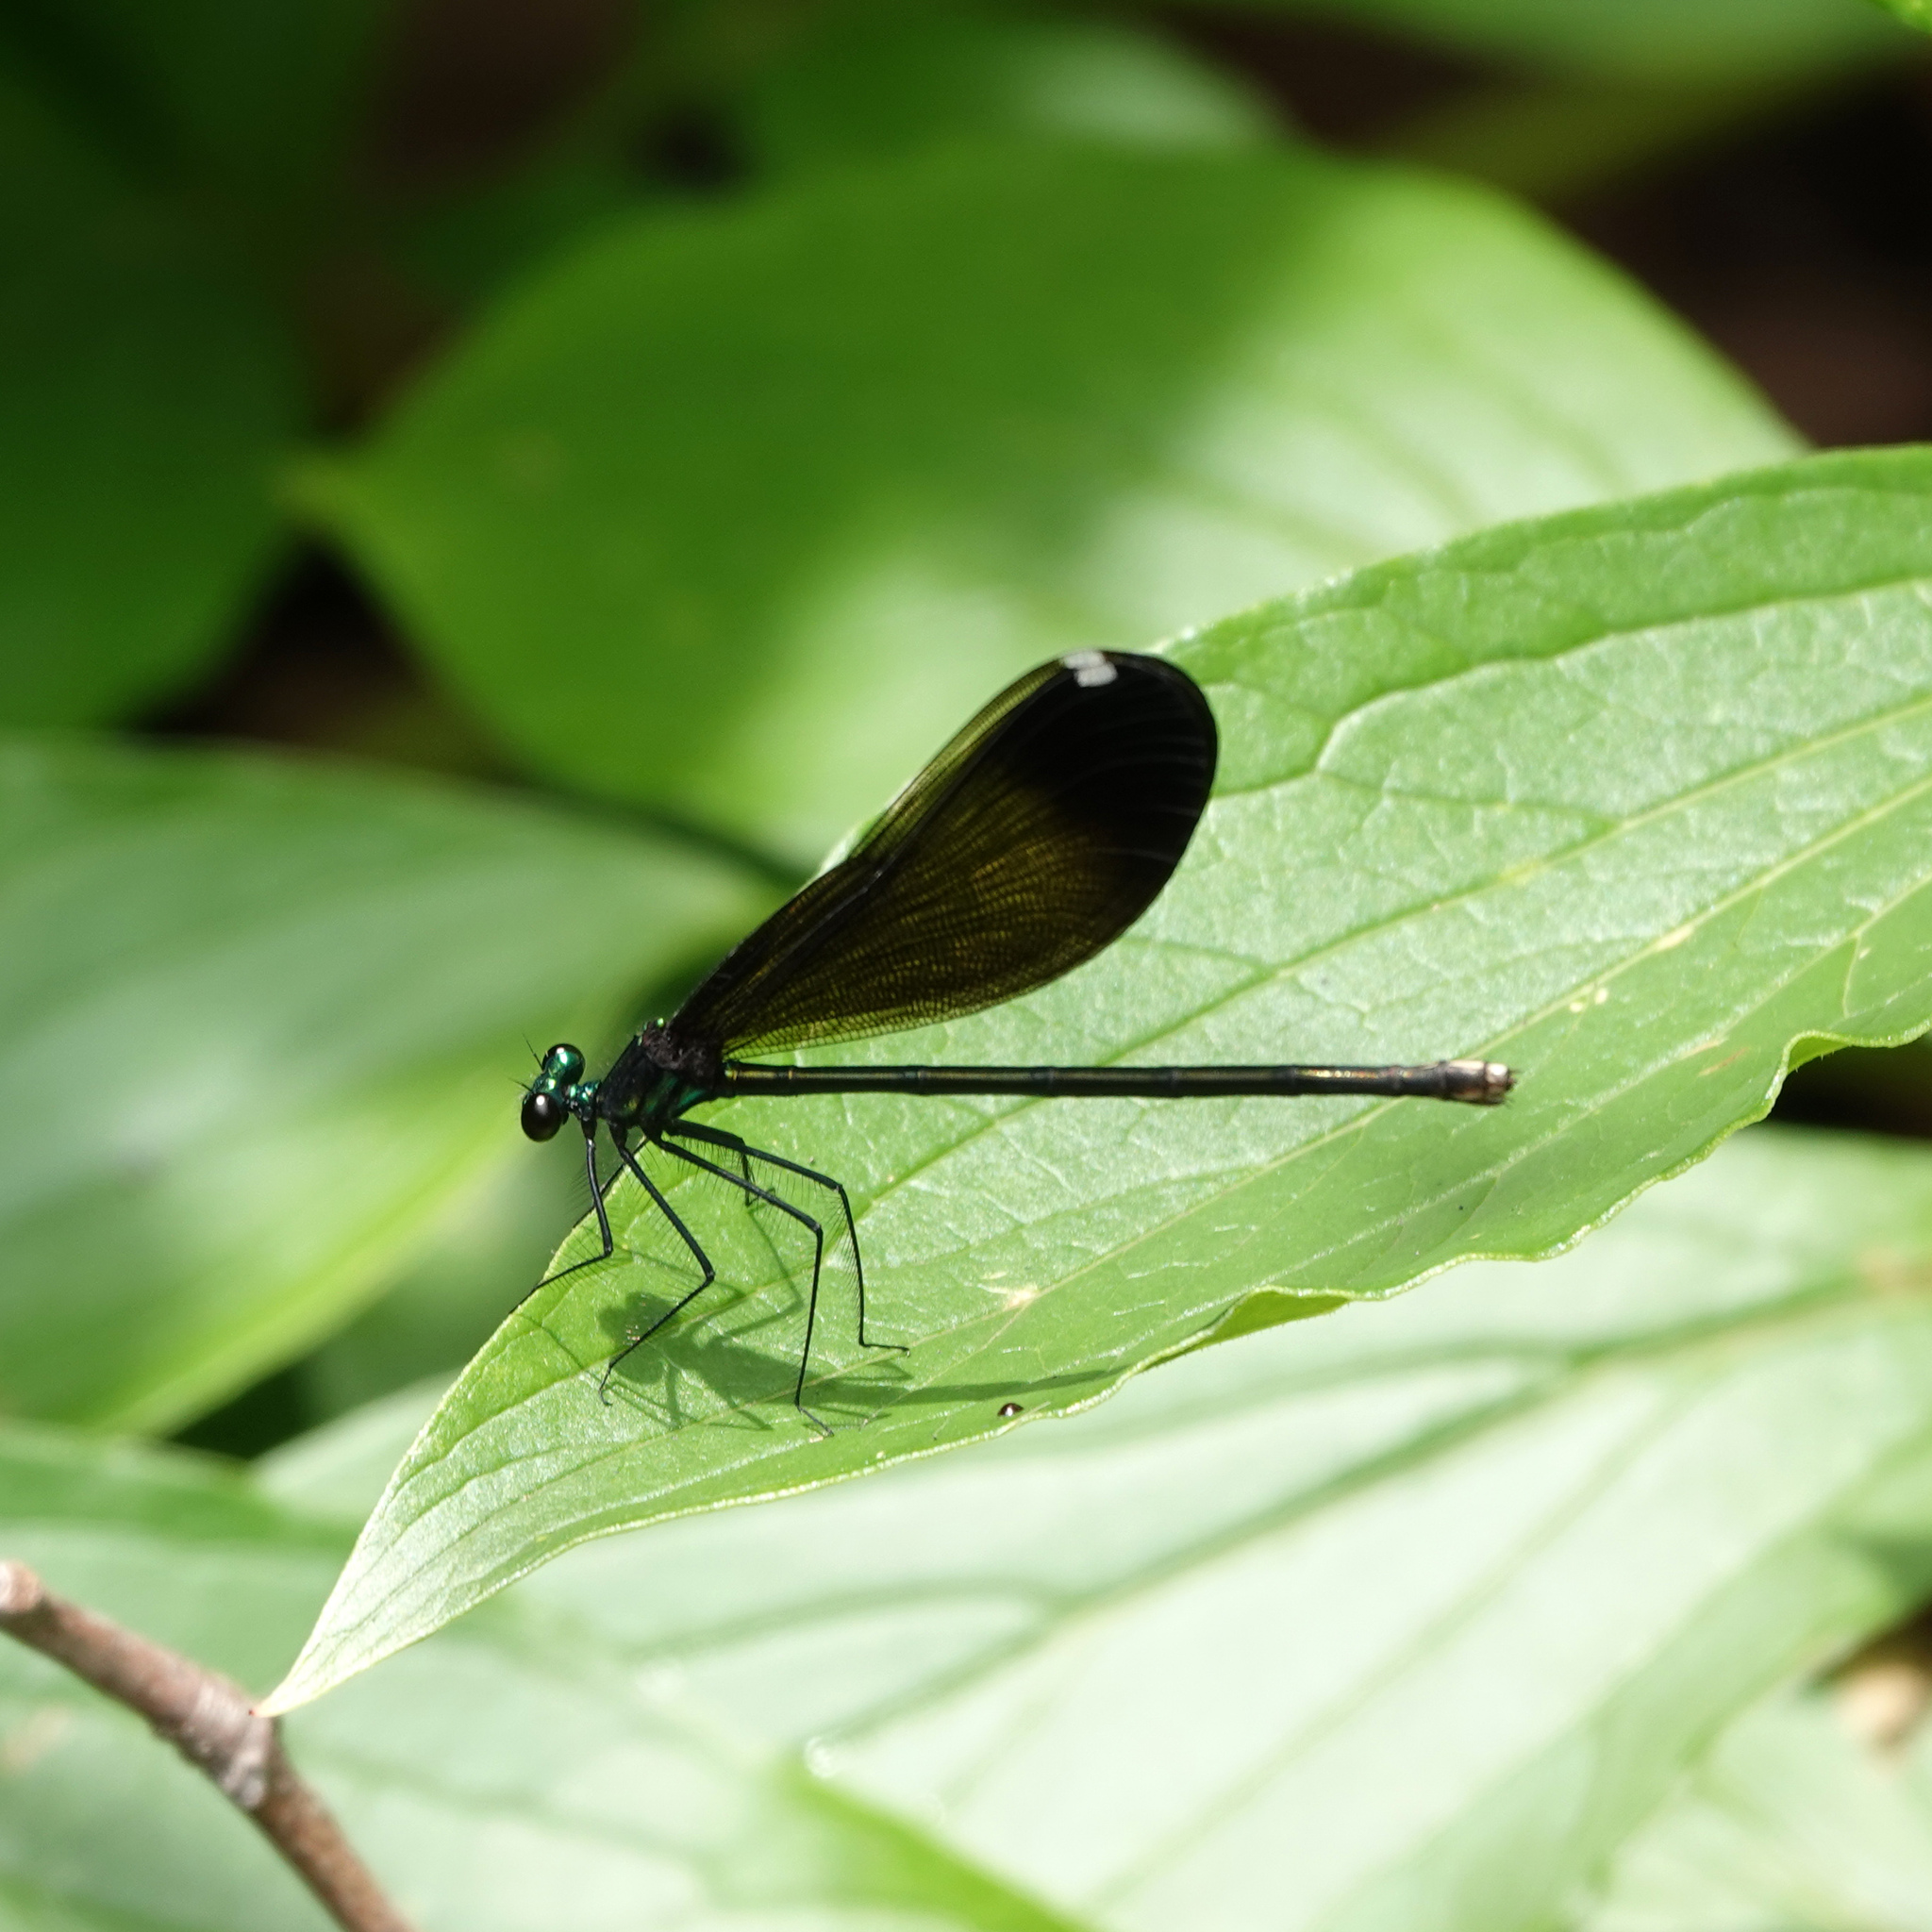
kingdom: Animalia
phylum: Arthropoda
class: Insecta
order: Odonata
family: Calopterygidae
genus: Calopteryx
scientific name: Calopteryx maculata
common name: Ebony jewelwing
